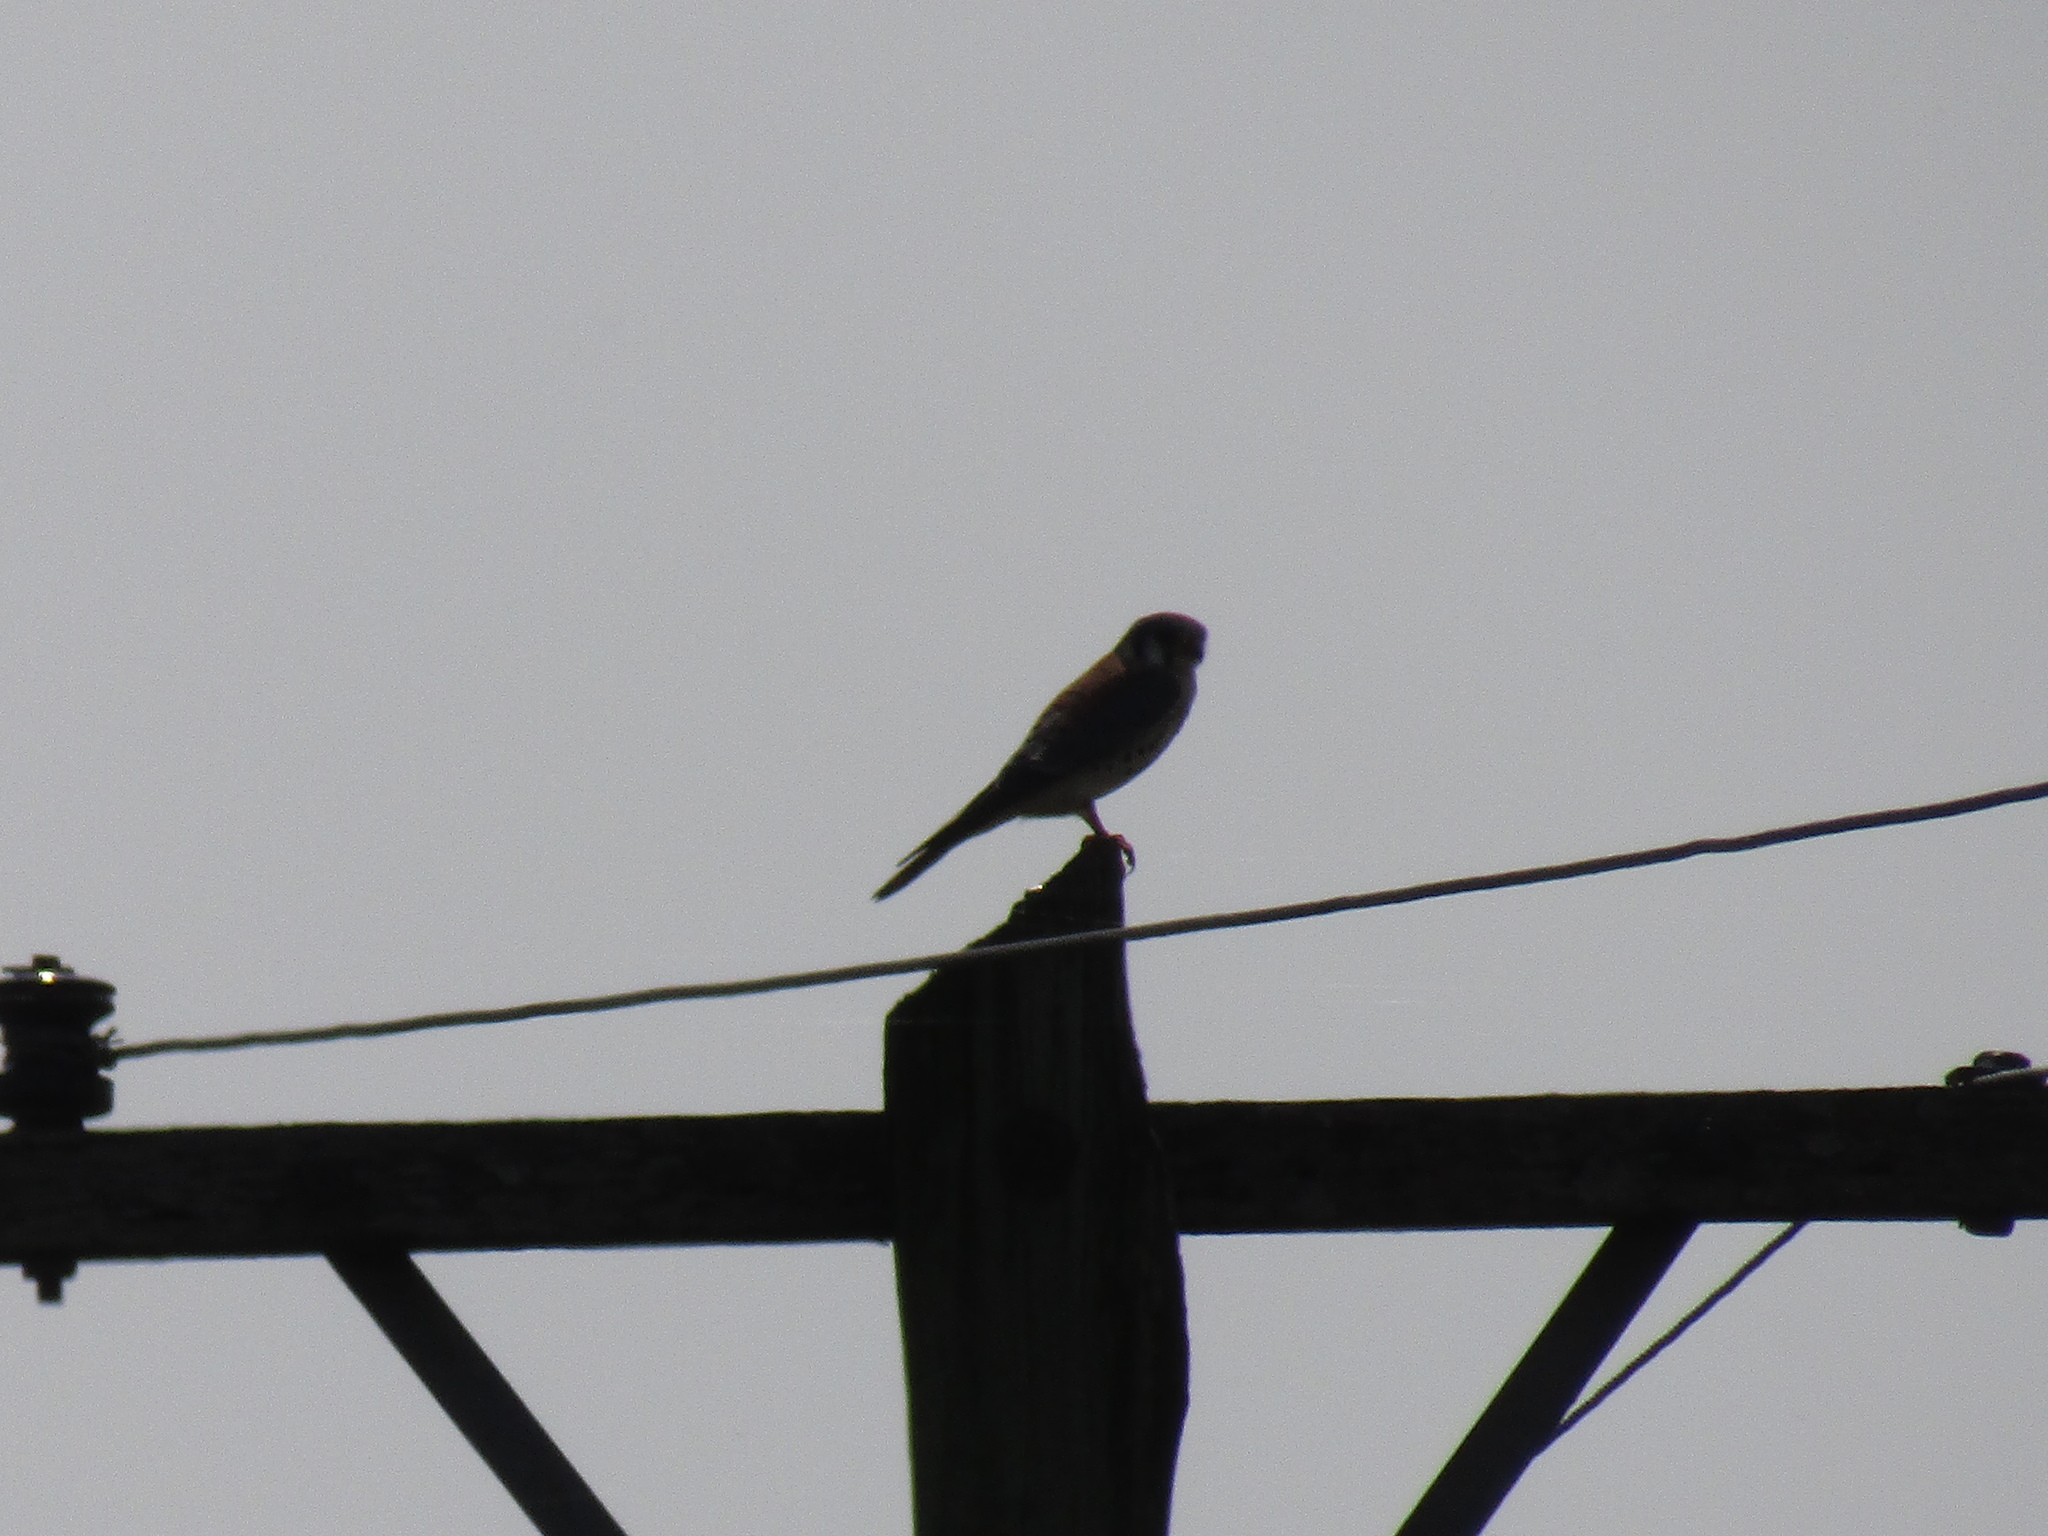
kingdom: Animalia
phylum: Chordata
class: Aves
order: Falconiformes
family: Falconidae
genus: Falco
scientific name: Falco sparverius
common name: American kestrel
